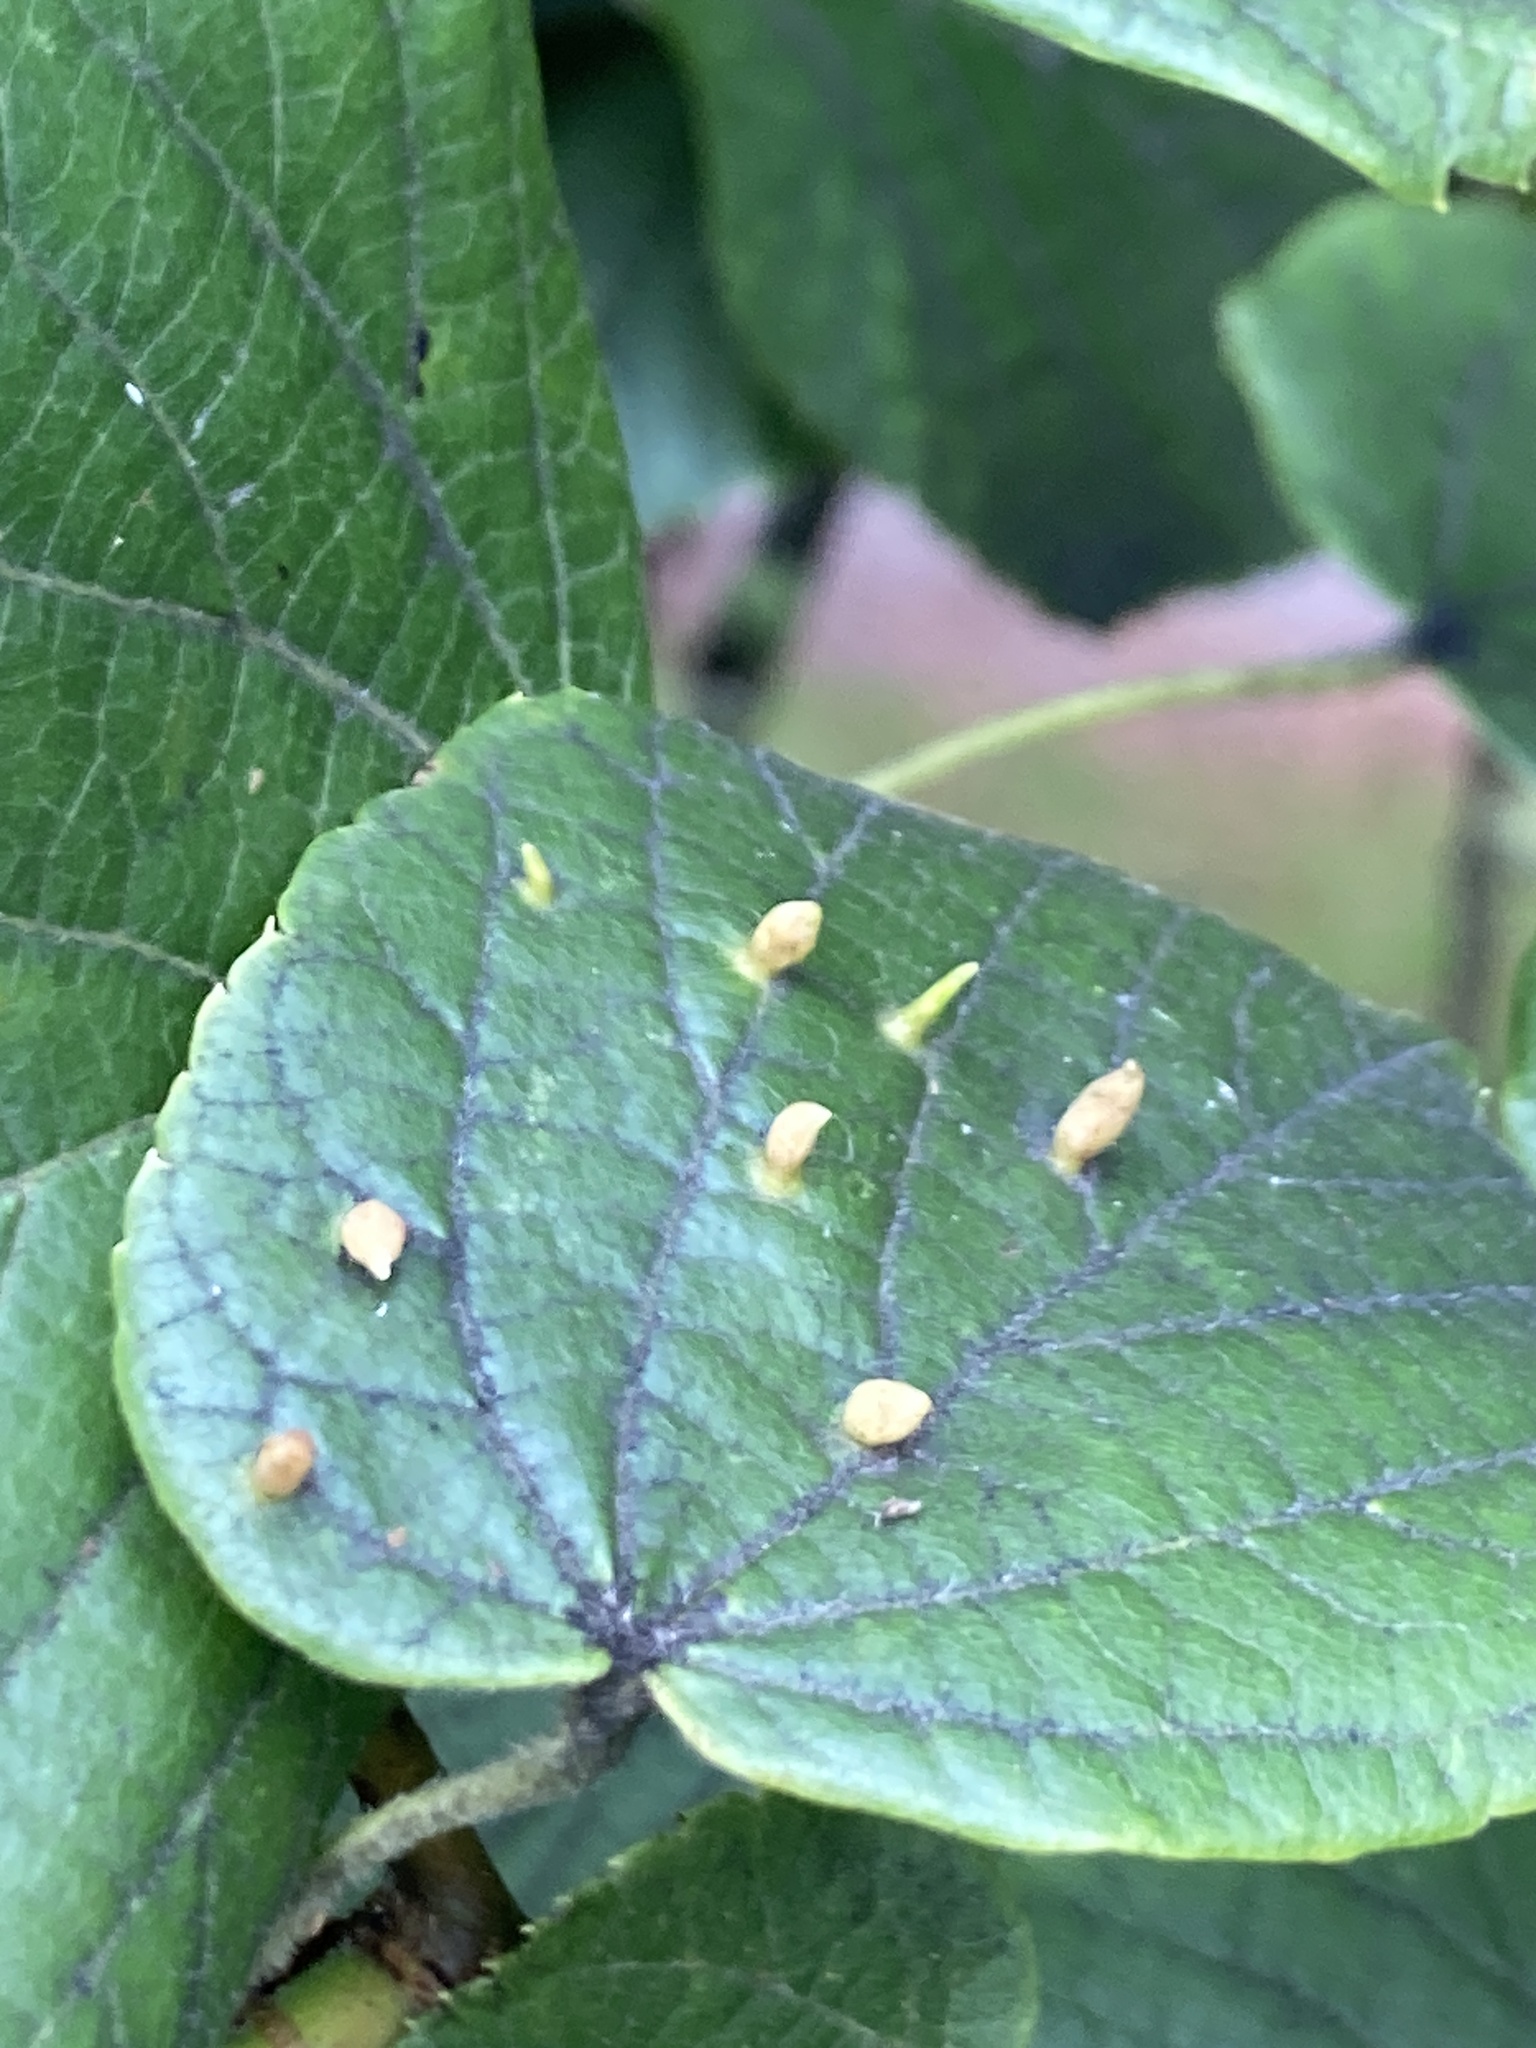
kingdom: Animalia
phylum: Arthropoda
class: Arachnida
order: Trombidiformes
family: Eriophyidae
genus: Eriophyes
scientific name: Eriophyes tiliae
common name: Red nail gall mite
